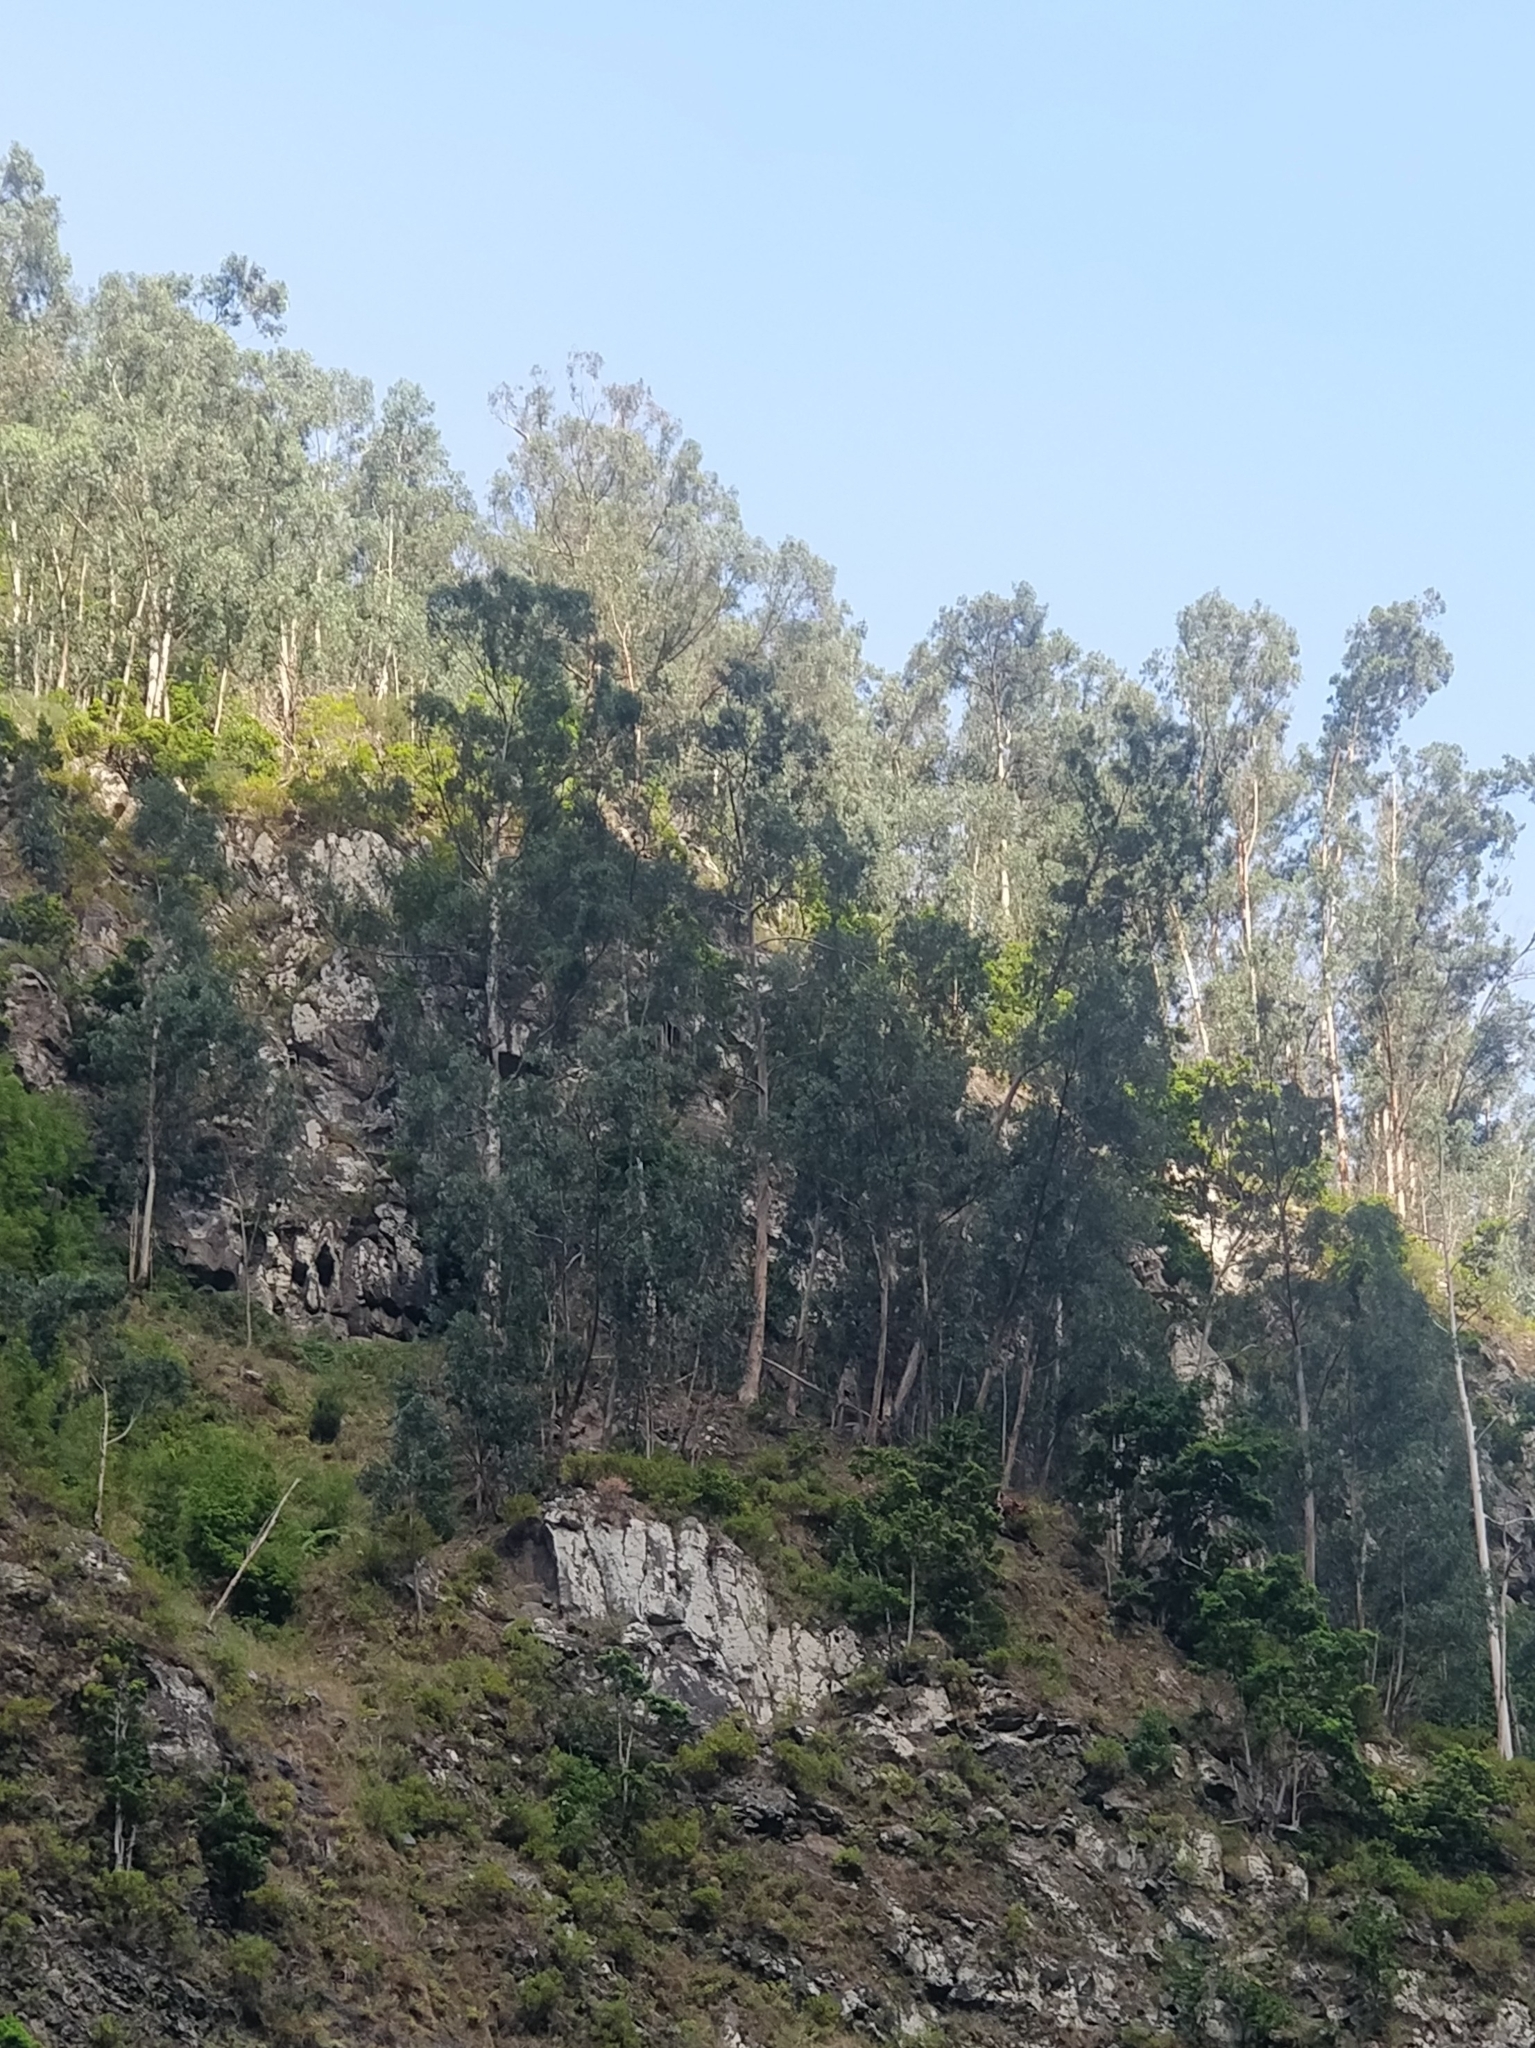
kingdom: Plantae
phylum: Tracheophyta
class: Magnoliopsida
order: Myrtales
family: Myrtaceae
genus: Eucalyptus
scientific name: Eucalyptus globulus
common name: Southern blue-gum
